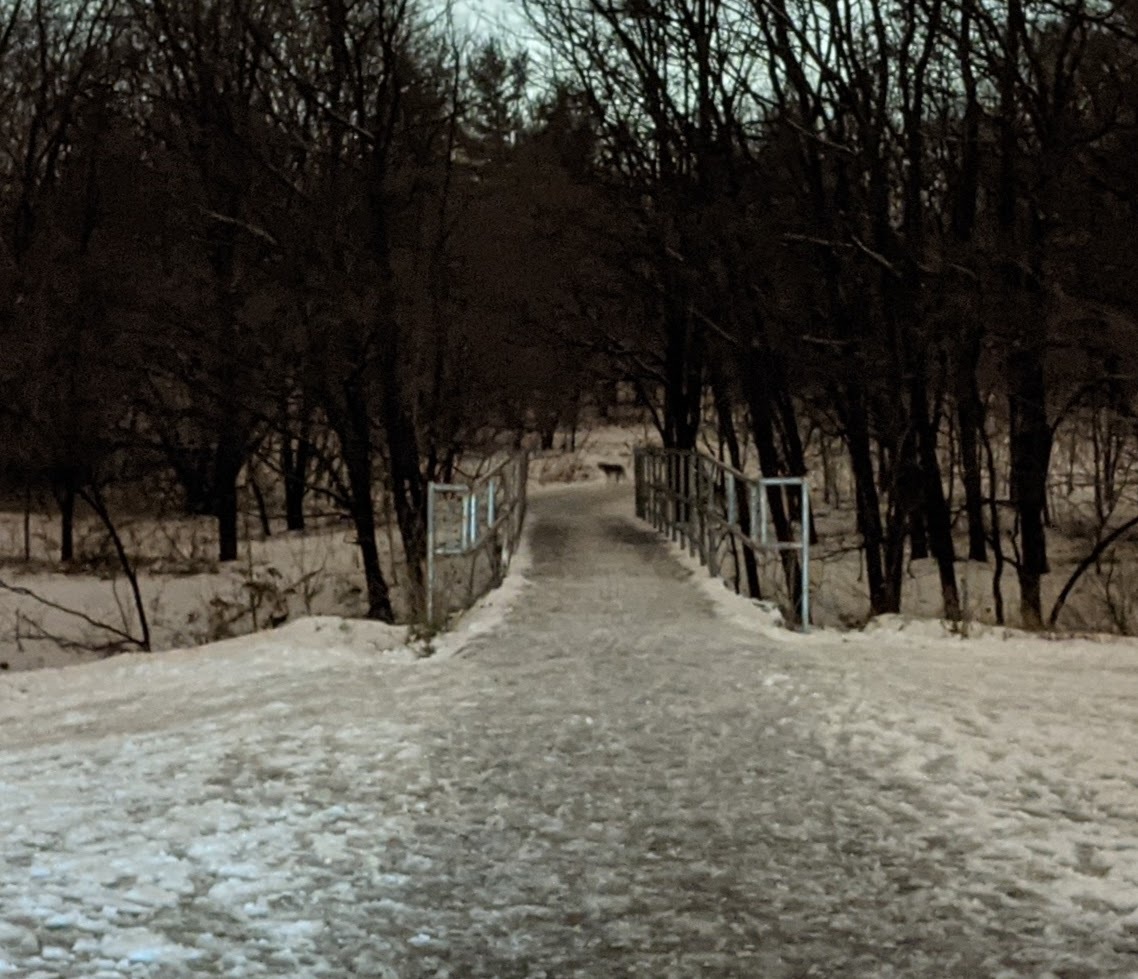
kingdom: Animalia
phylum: Chordata
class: Mammalia
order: Carnivora
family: Canidae
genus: Canis
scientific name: Canis latrans
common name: Coyote
